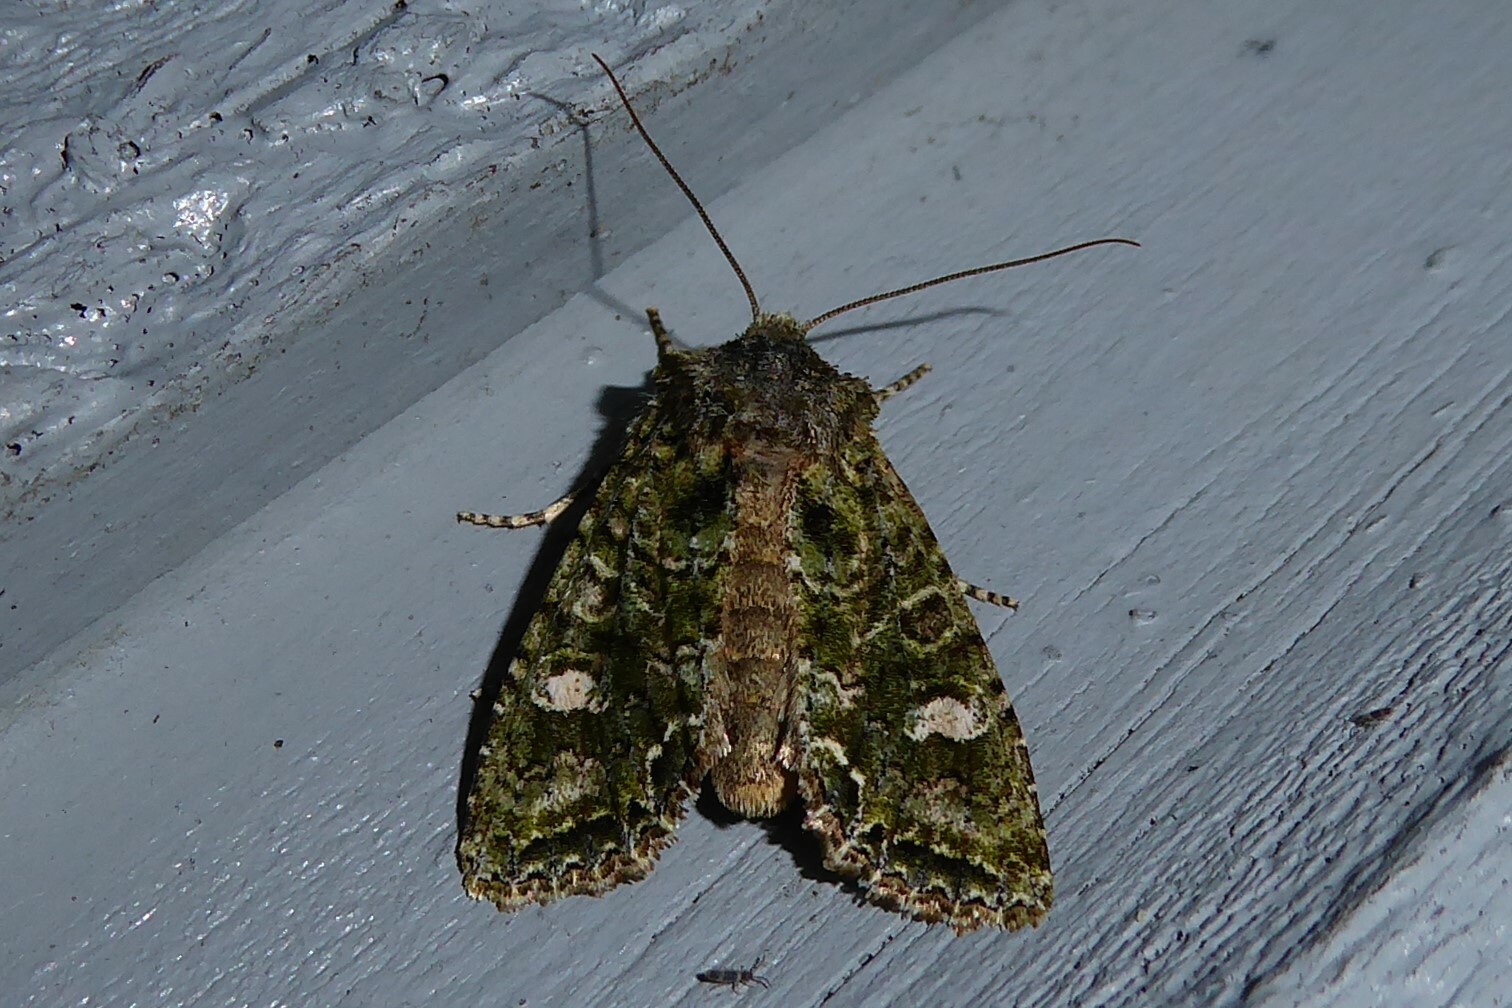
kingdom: Animalia
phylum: Arthropoda
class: Insecta
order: Lepidoptera
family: Noctuidae
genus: Ichneutica
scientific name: Ichneutica
